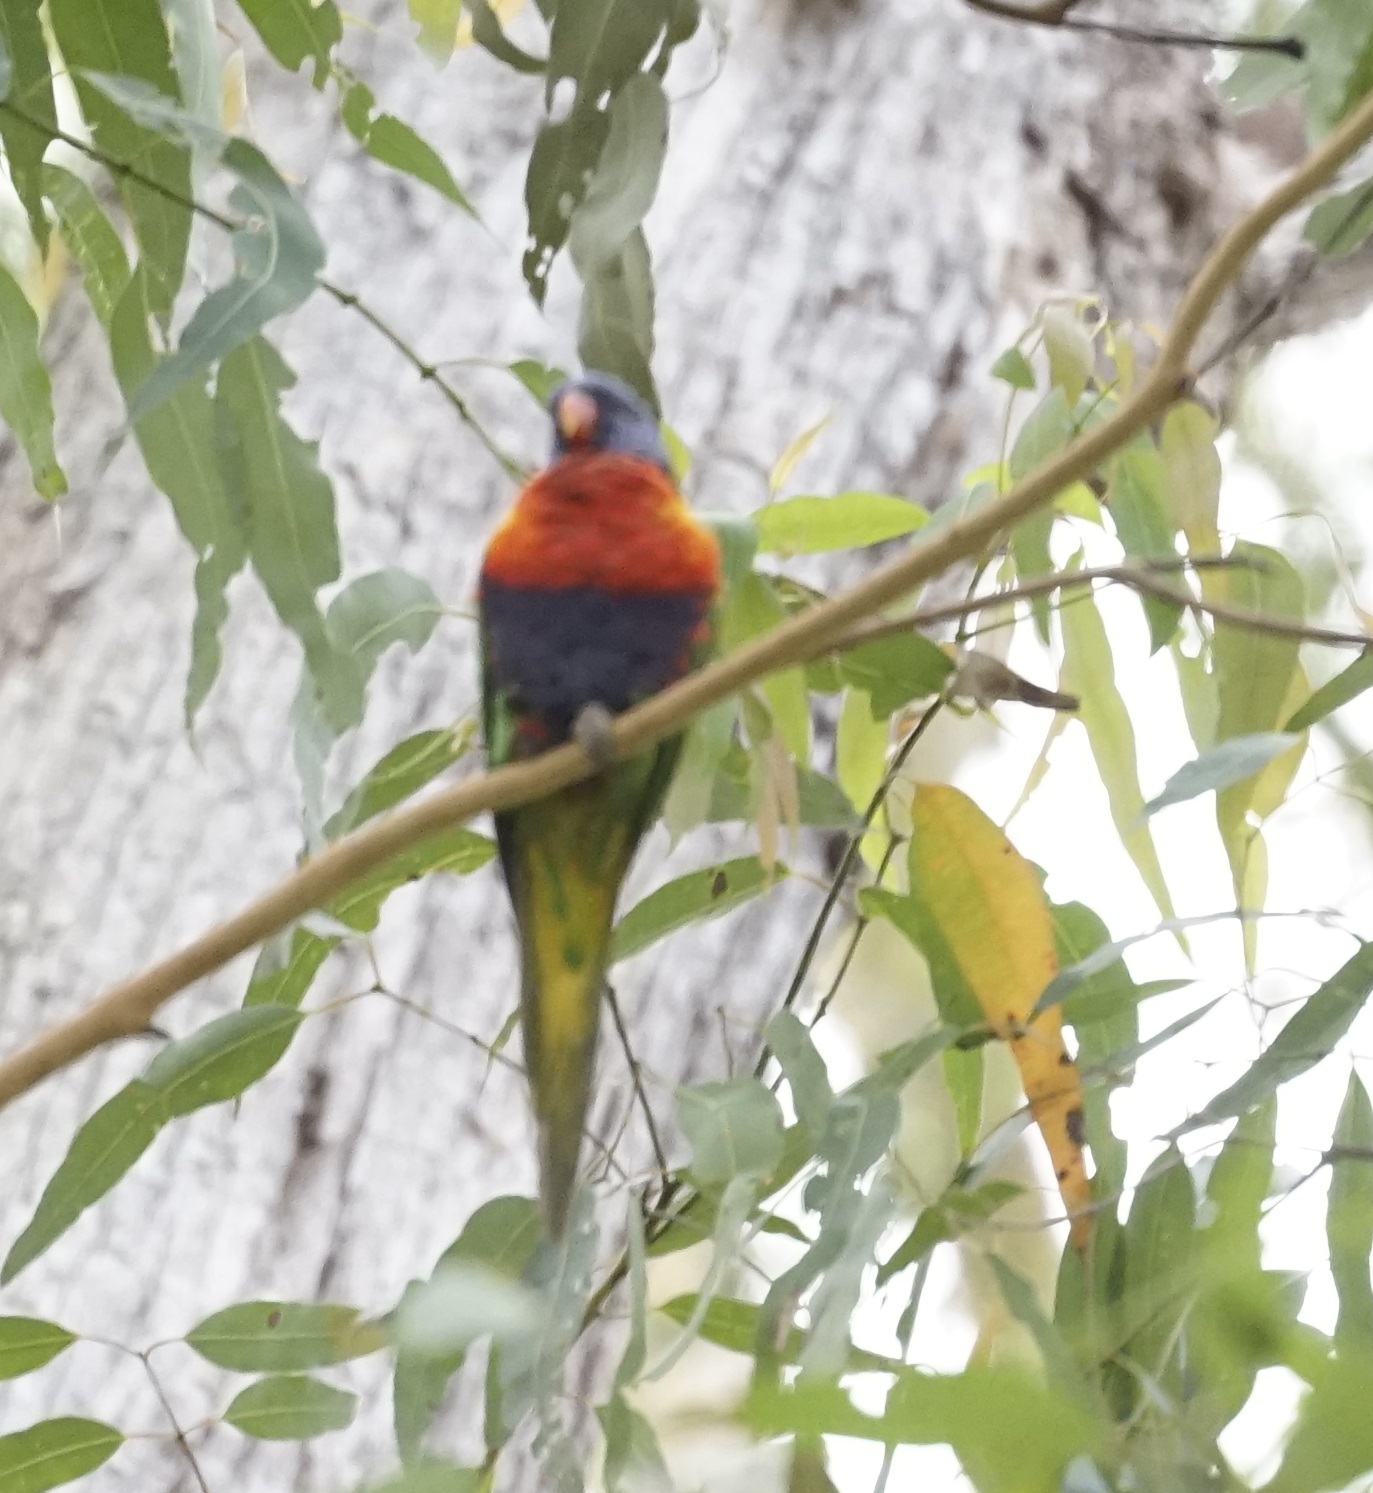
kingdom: Animalia
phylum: Chordata
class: Aves
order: Psittaciformes
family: Psittacidae
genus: Trichoglossus
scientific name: Trichoglossus haematodus
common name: Coconut lorikeet
